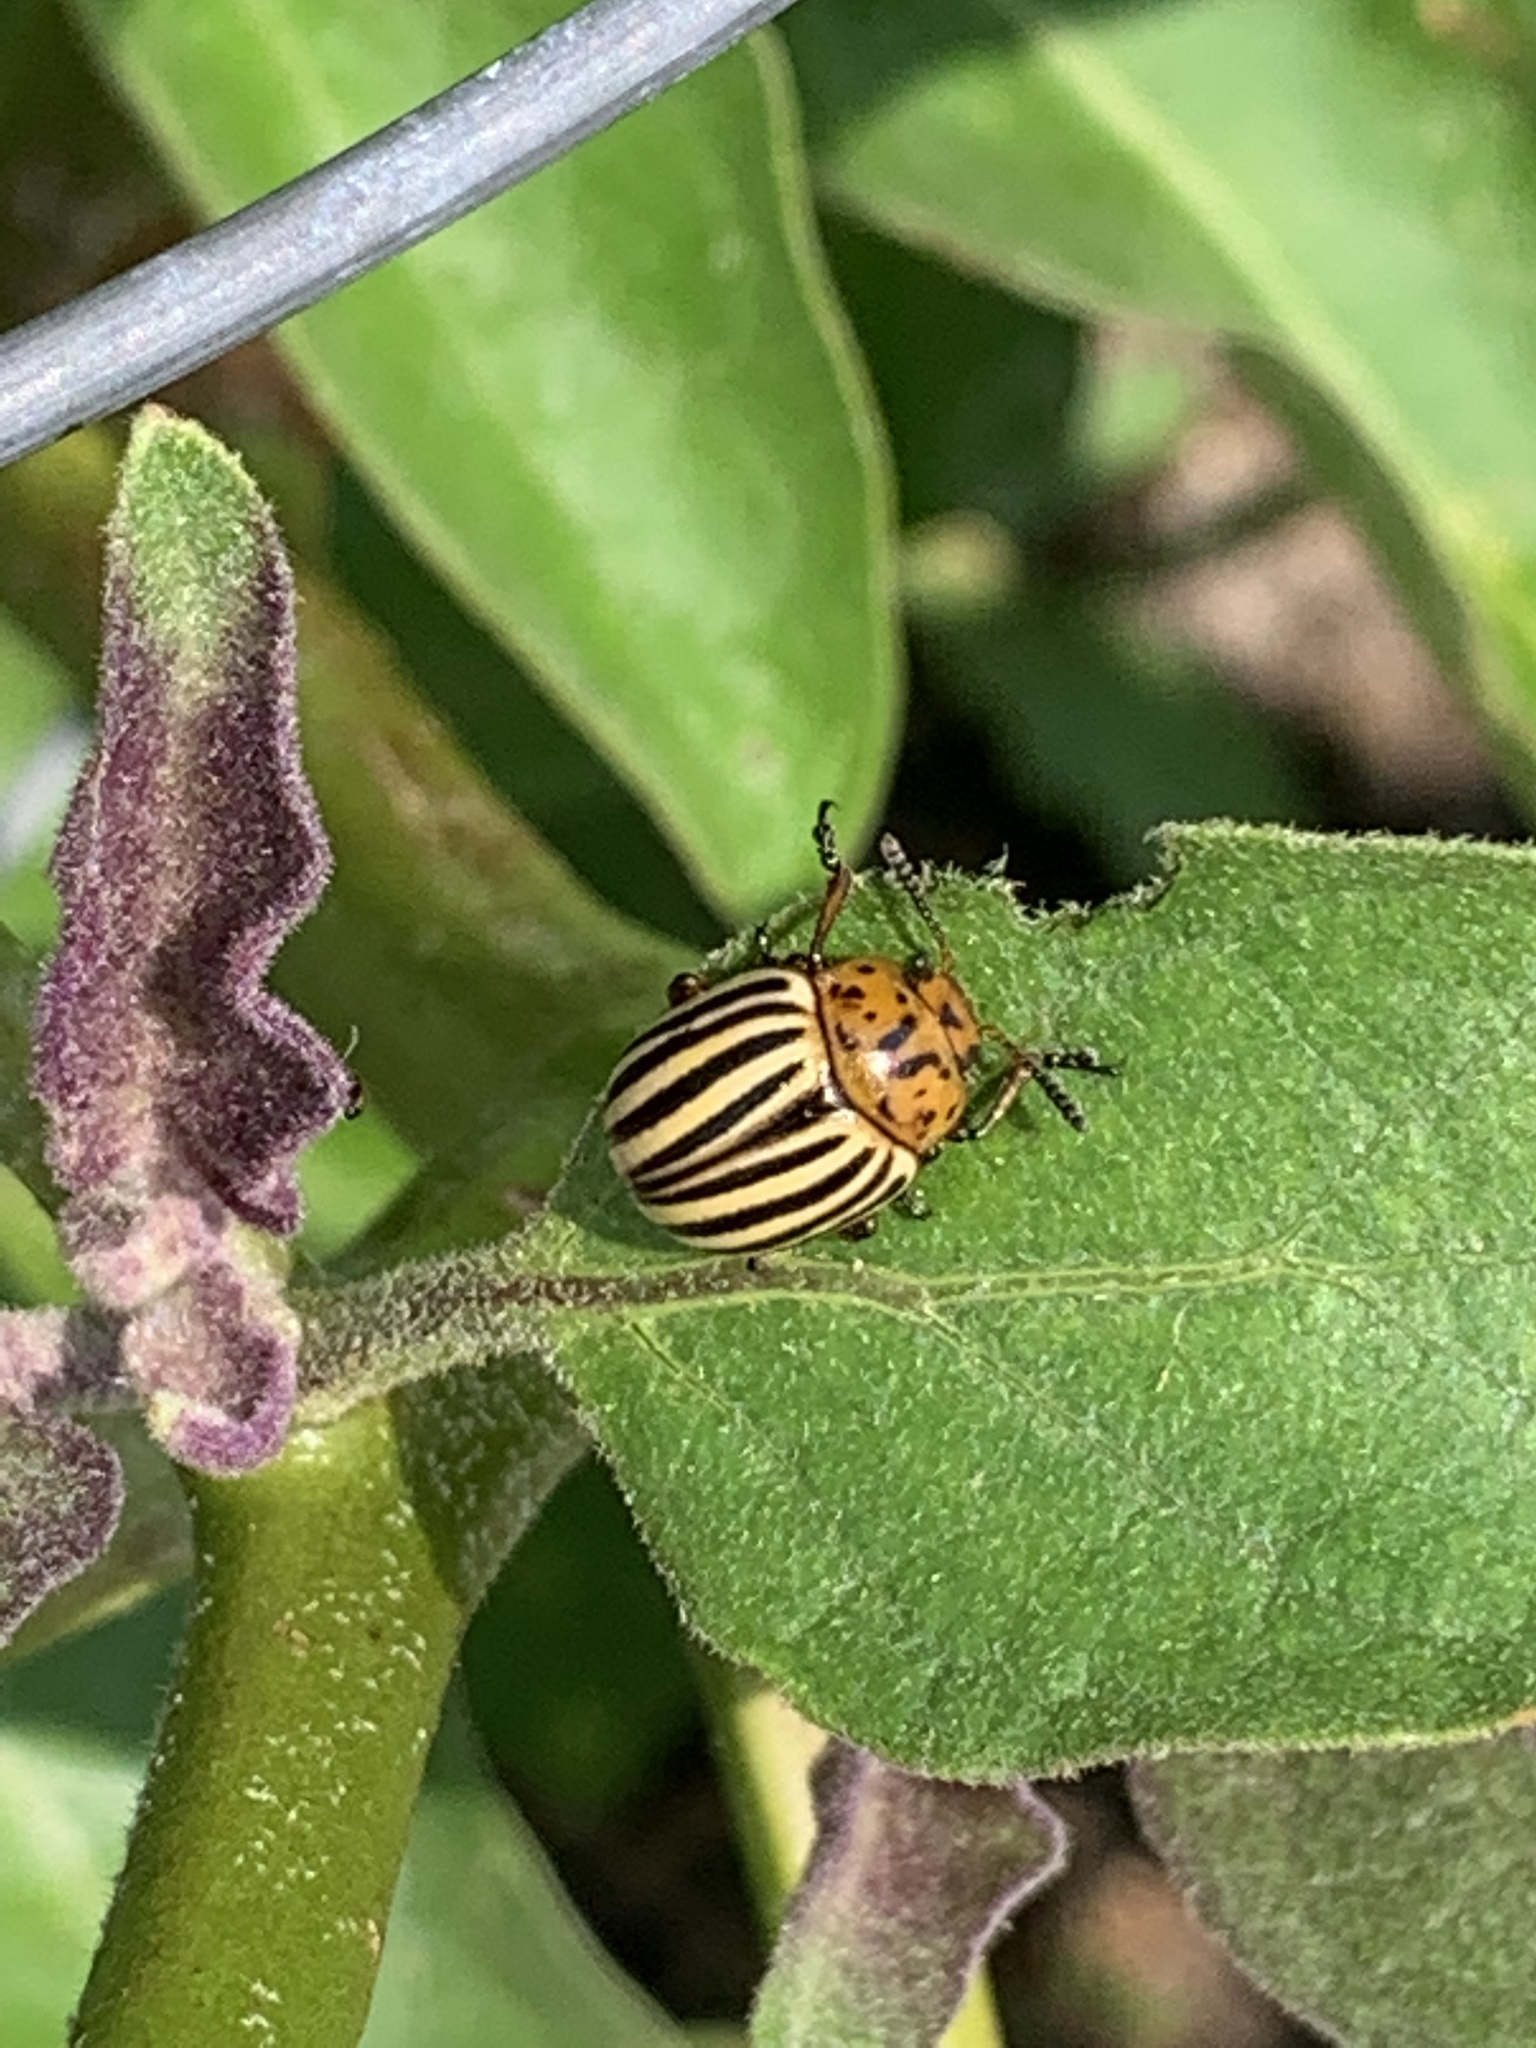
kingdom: Animalia
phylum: Arthropoda
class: Insecta
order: Coleoptera
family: Chrysomelidae
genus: Leptinotarsa
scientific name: Leptinotarsa decemlineata
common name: Colorado potato beetle
